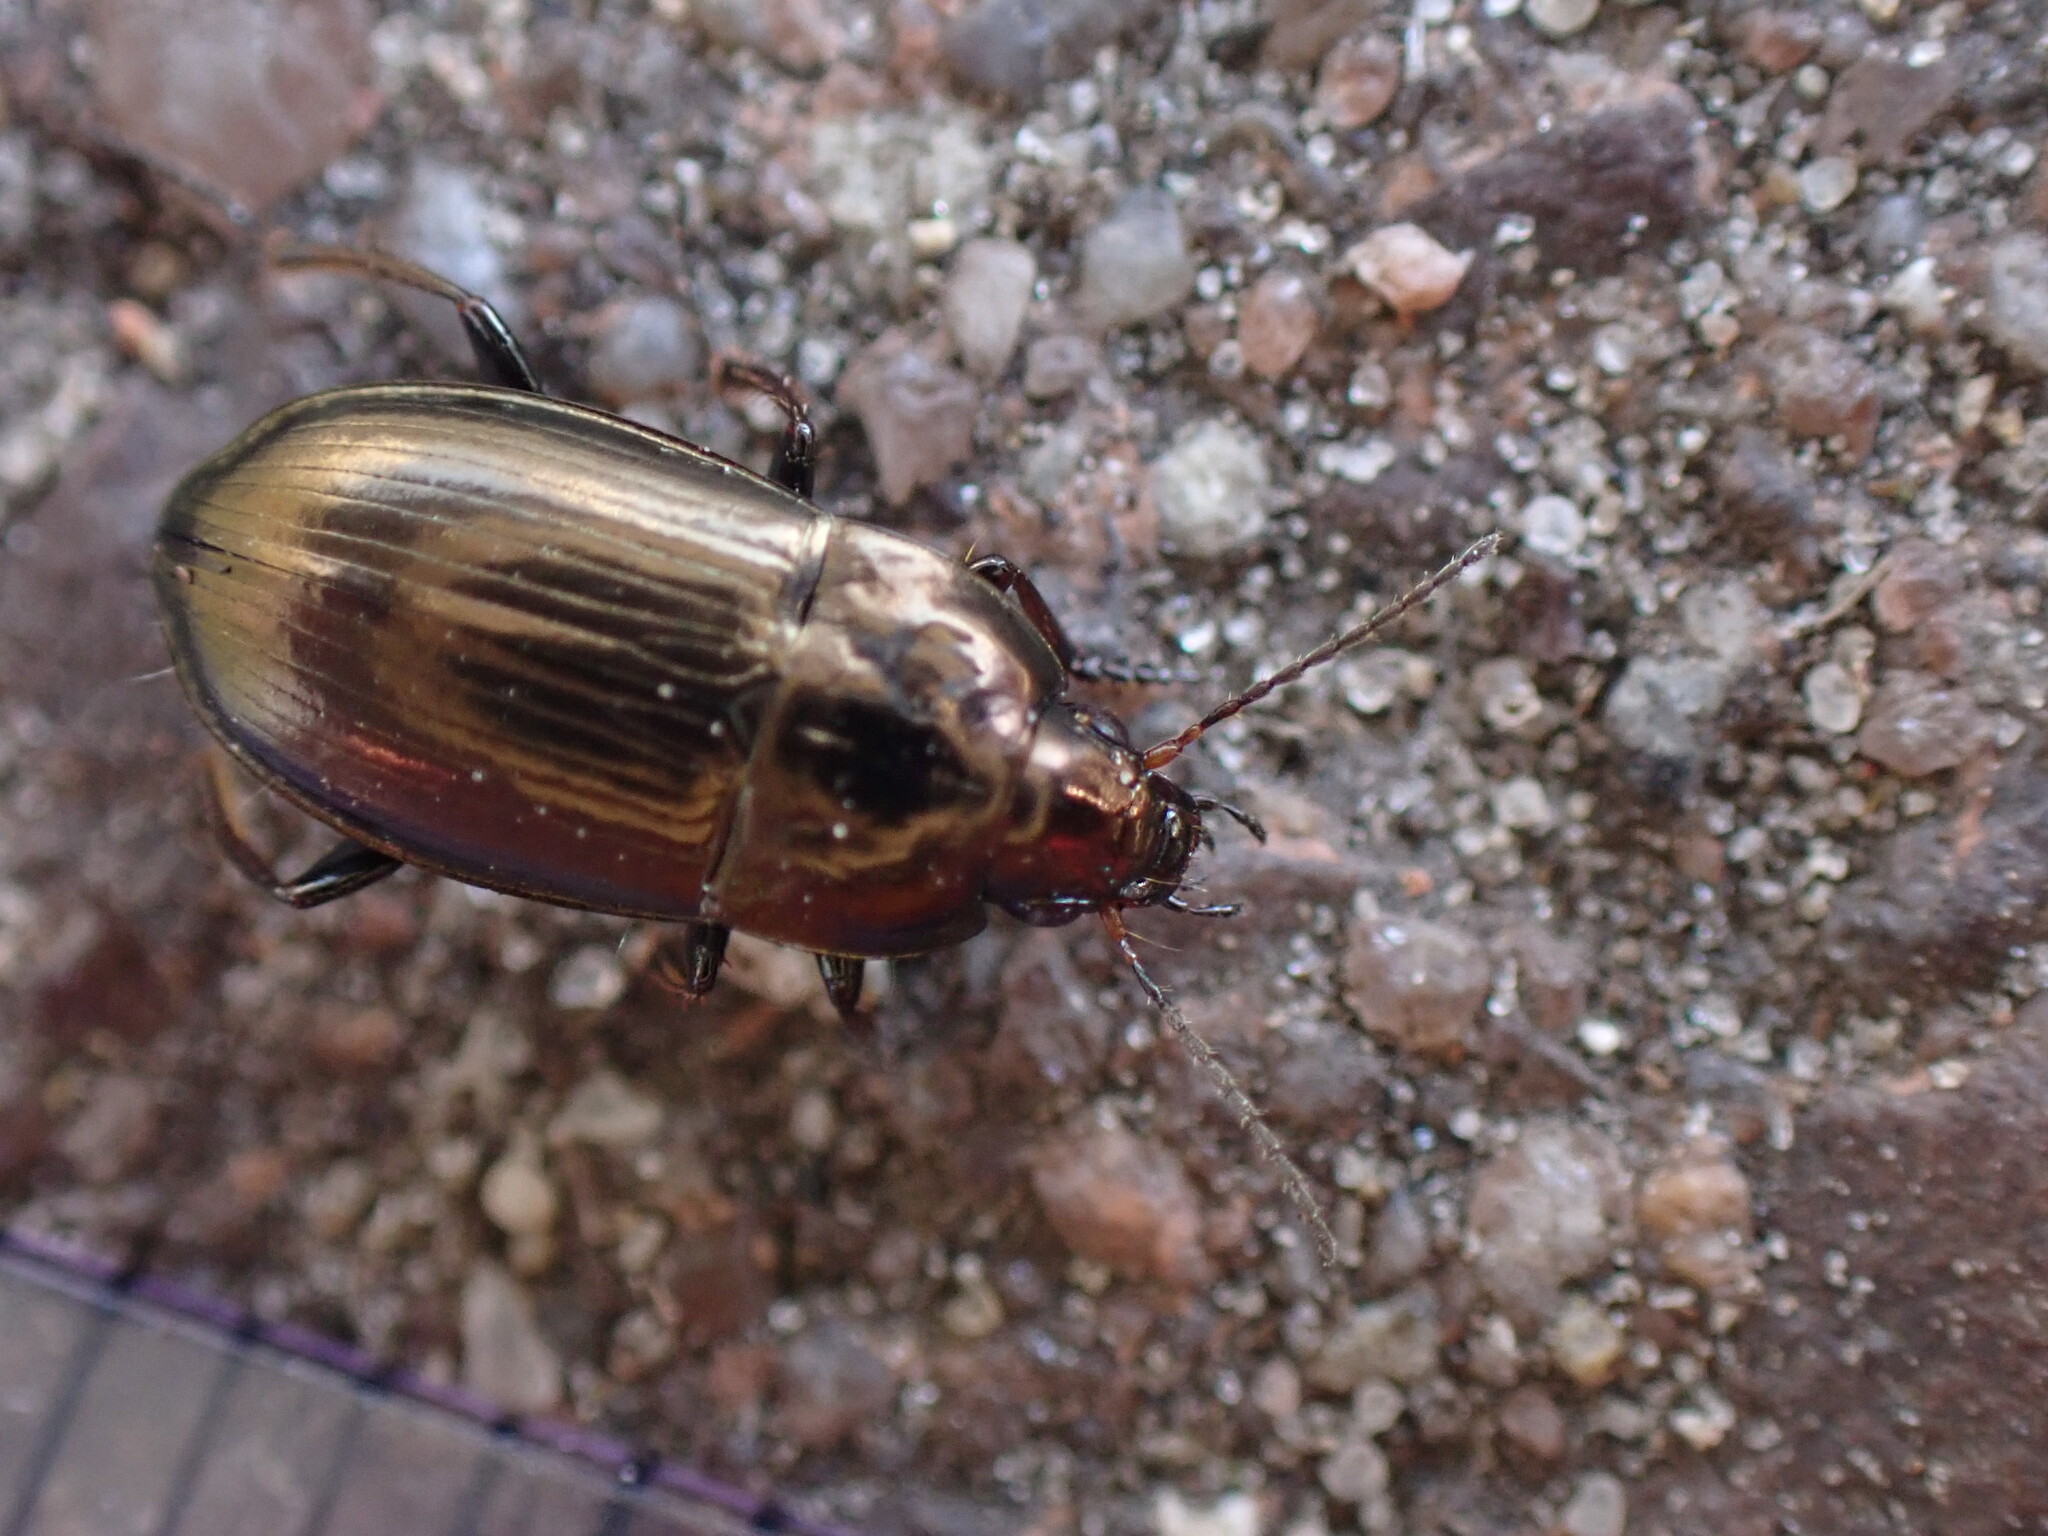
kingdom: Animalia
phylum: Arthropoda
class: Insecta
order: Coleoptera
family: Carabidae
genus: Amara
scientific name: Amara aenea
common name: Common sun beetle
